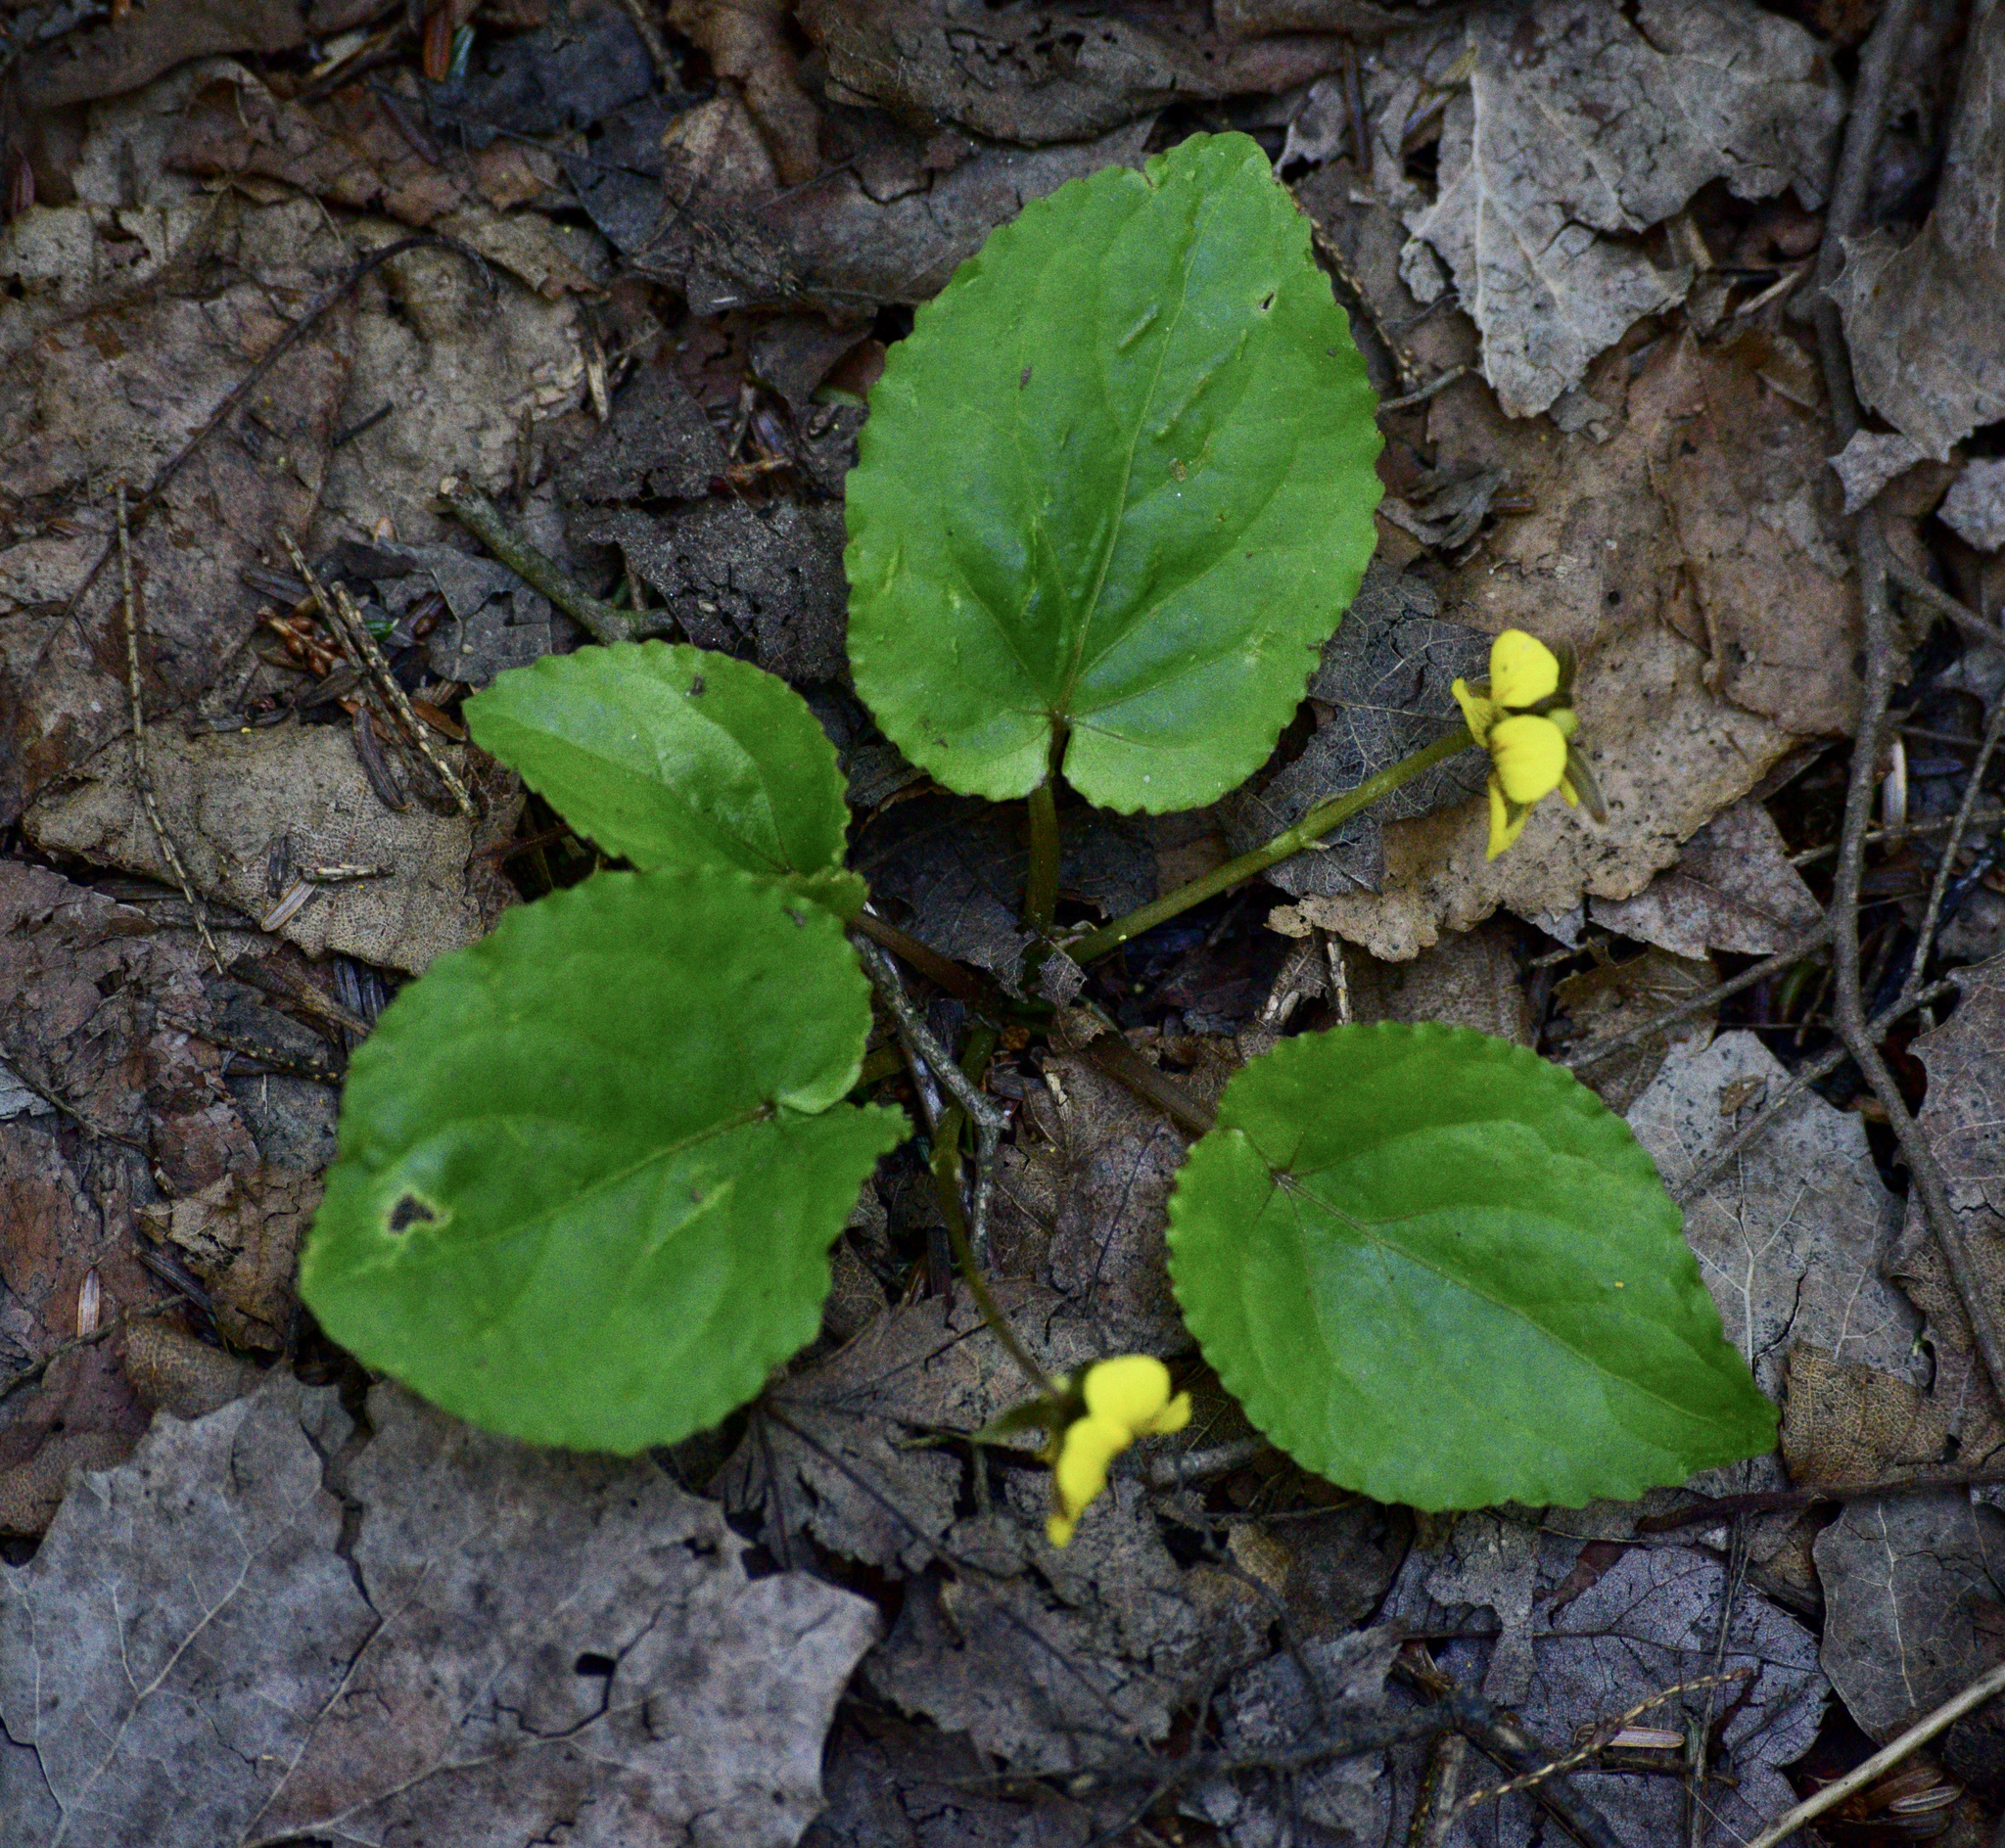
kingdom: Plantae
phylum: Tracheophyta
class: Magnoliopsida
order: Malpighiales
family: Violaceae
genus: Viola
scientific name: Viola rotundifolia
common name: Early yellow violet
